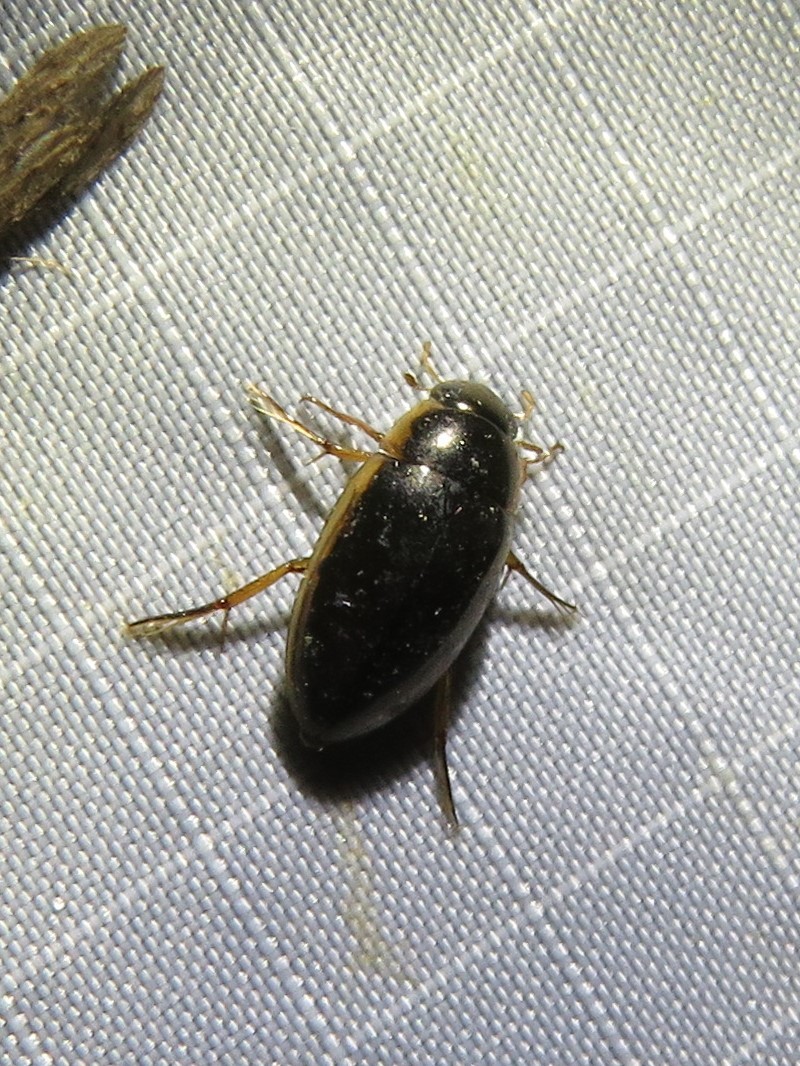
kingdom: Animalia
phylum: Arthropoda
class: Insecta
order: Coleoptera
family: Hydrophilidae
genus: Tropisternus
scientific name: Tropisternus lateralis
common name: Lateral-banded water scavenger beetle
